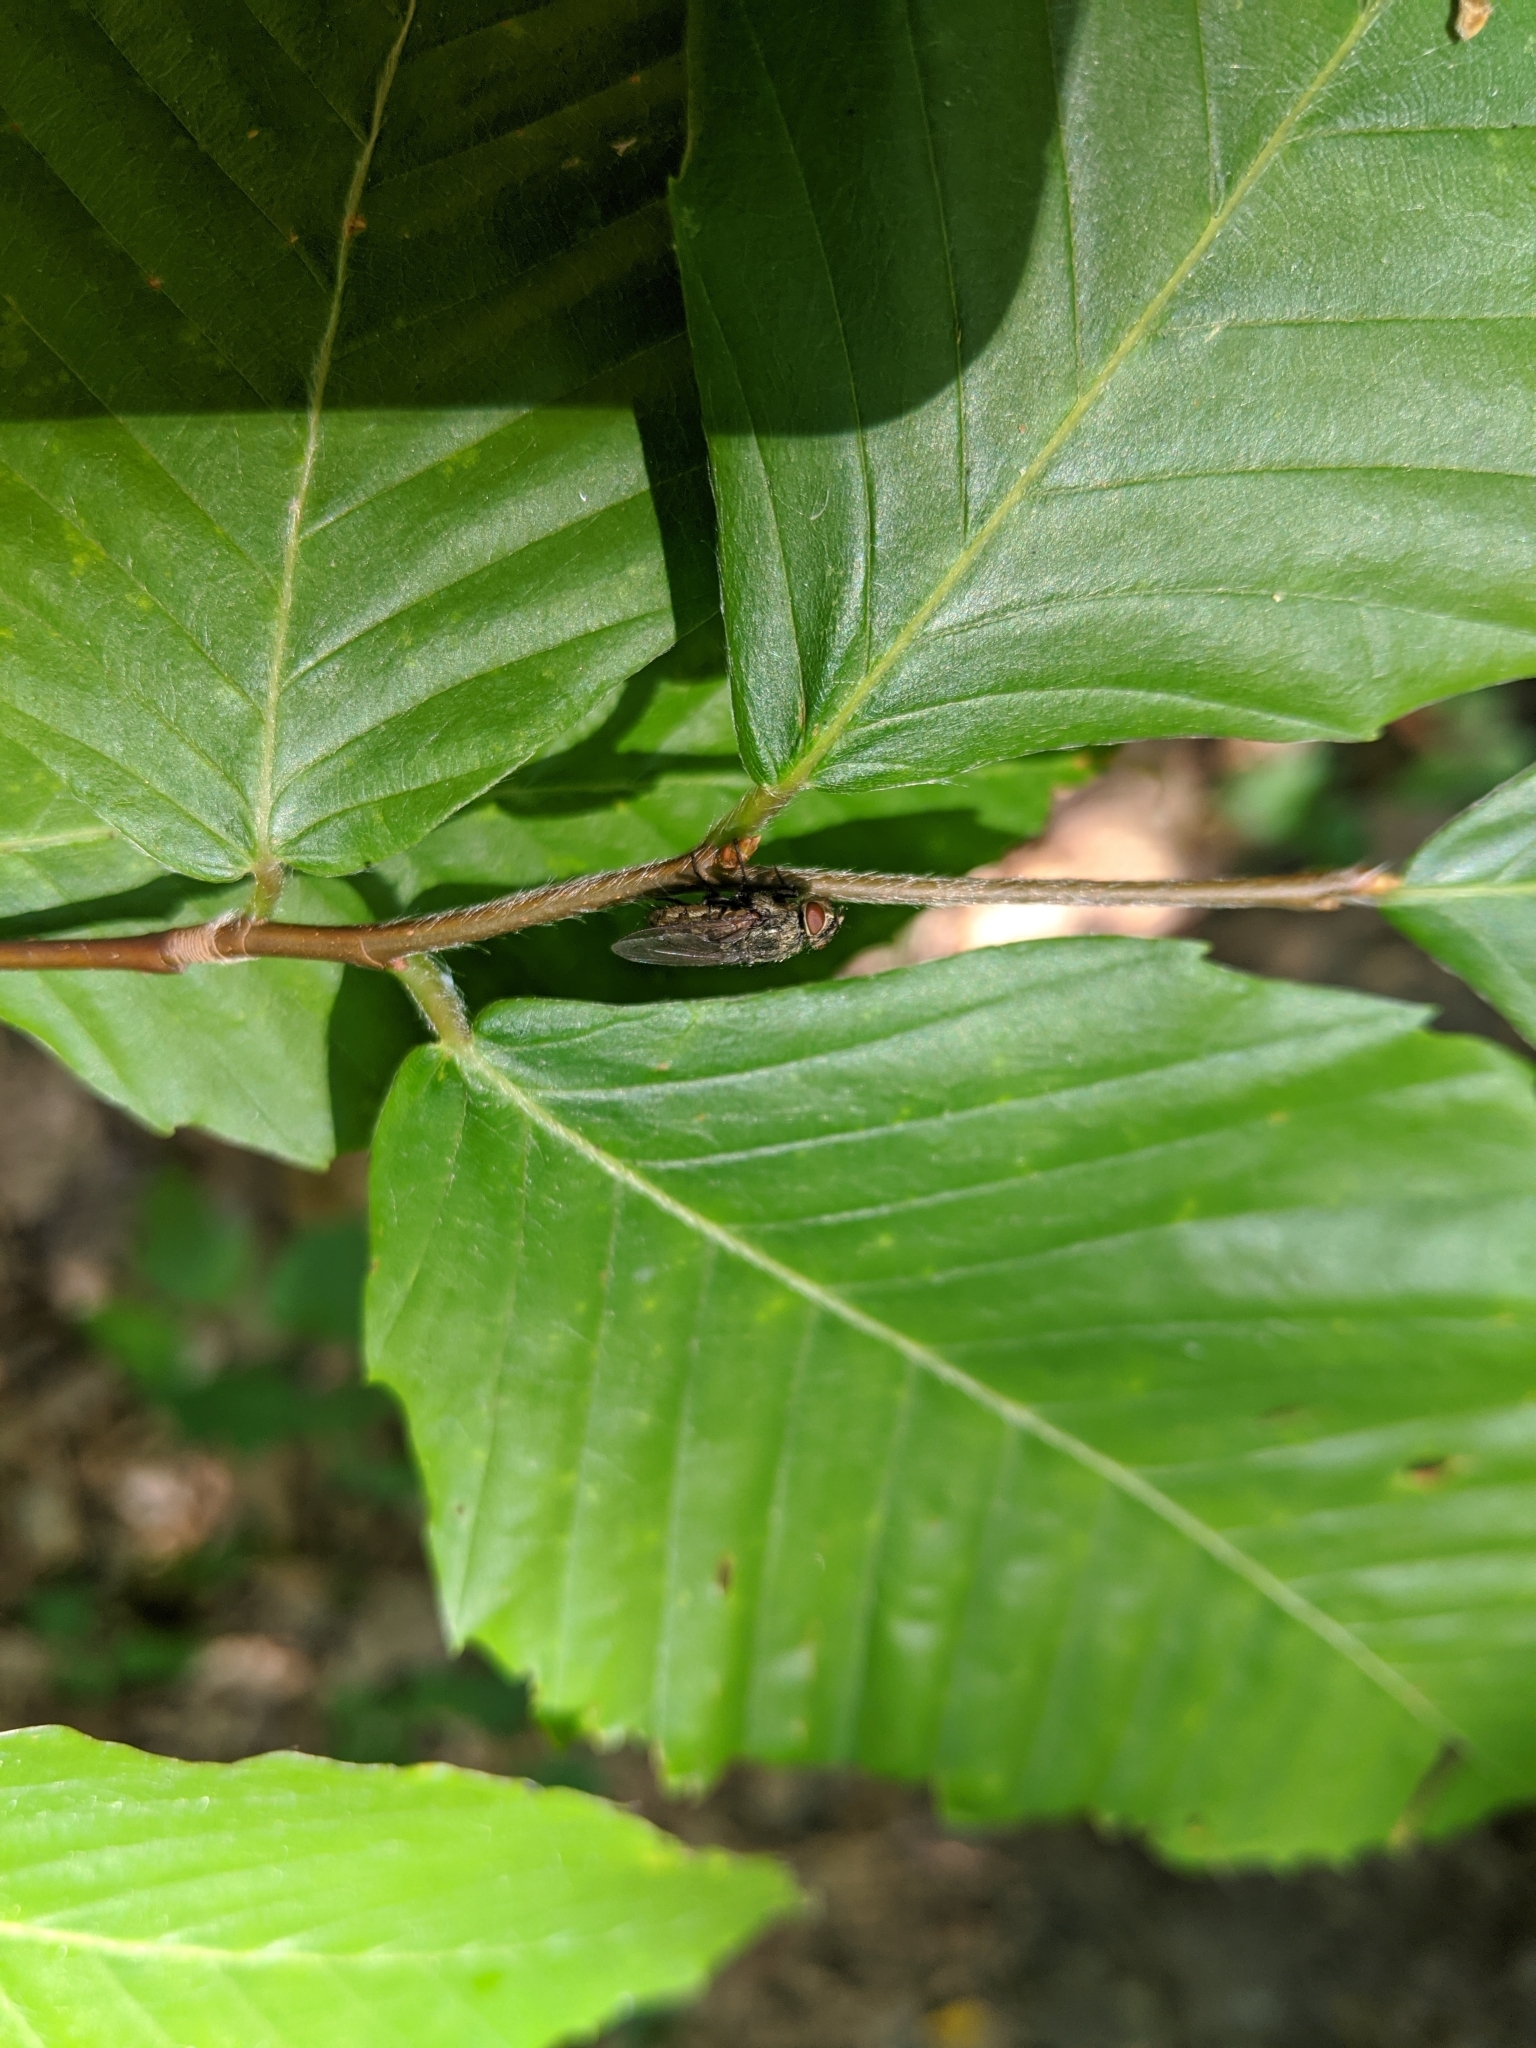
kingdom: Animalia
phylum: Arthropoda
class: Insecta
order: Diptera
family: Polleniidae
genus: Pollenia
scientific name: Pollenia
